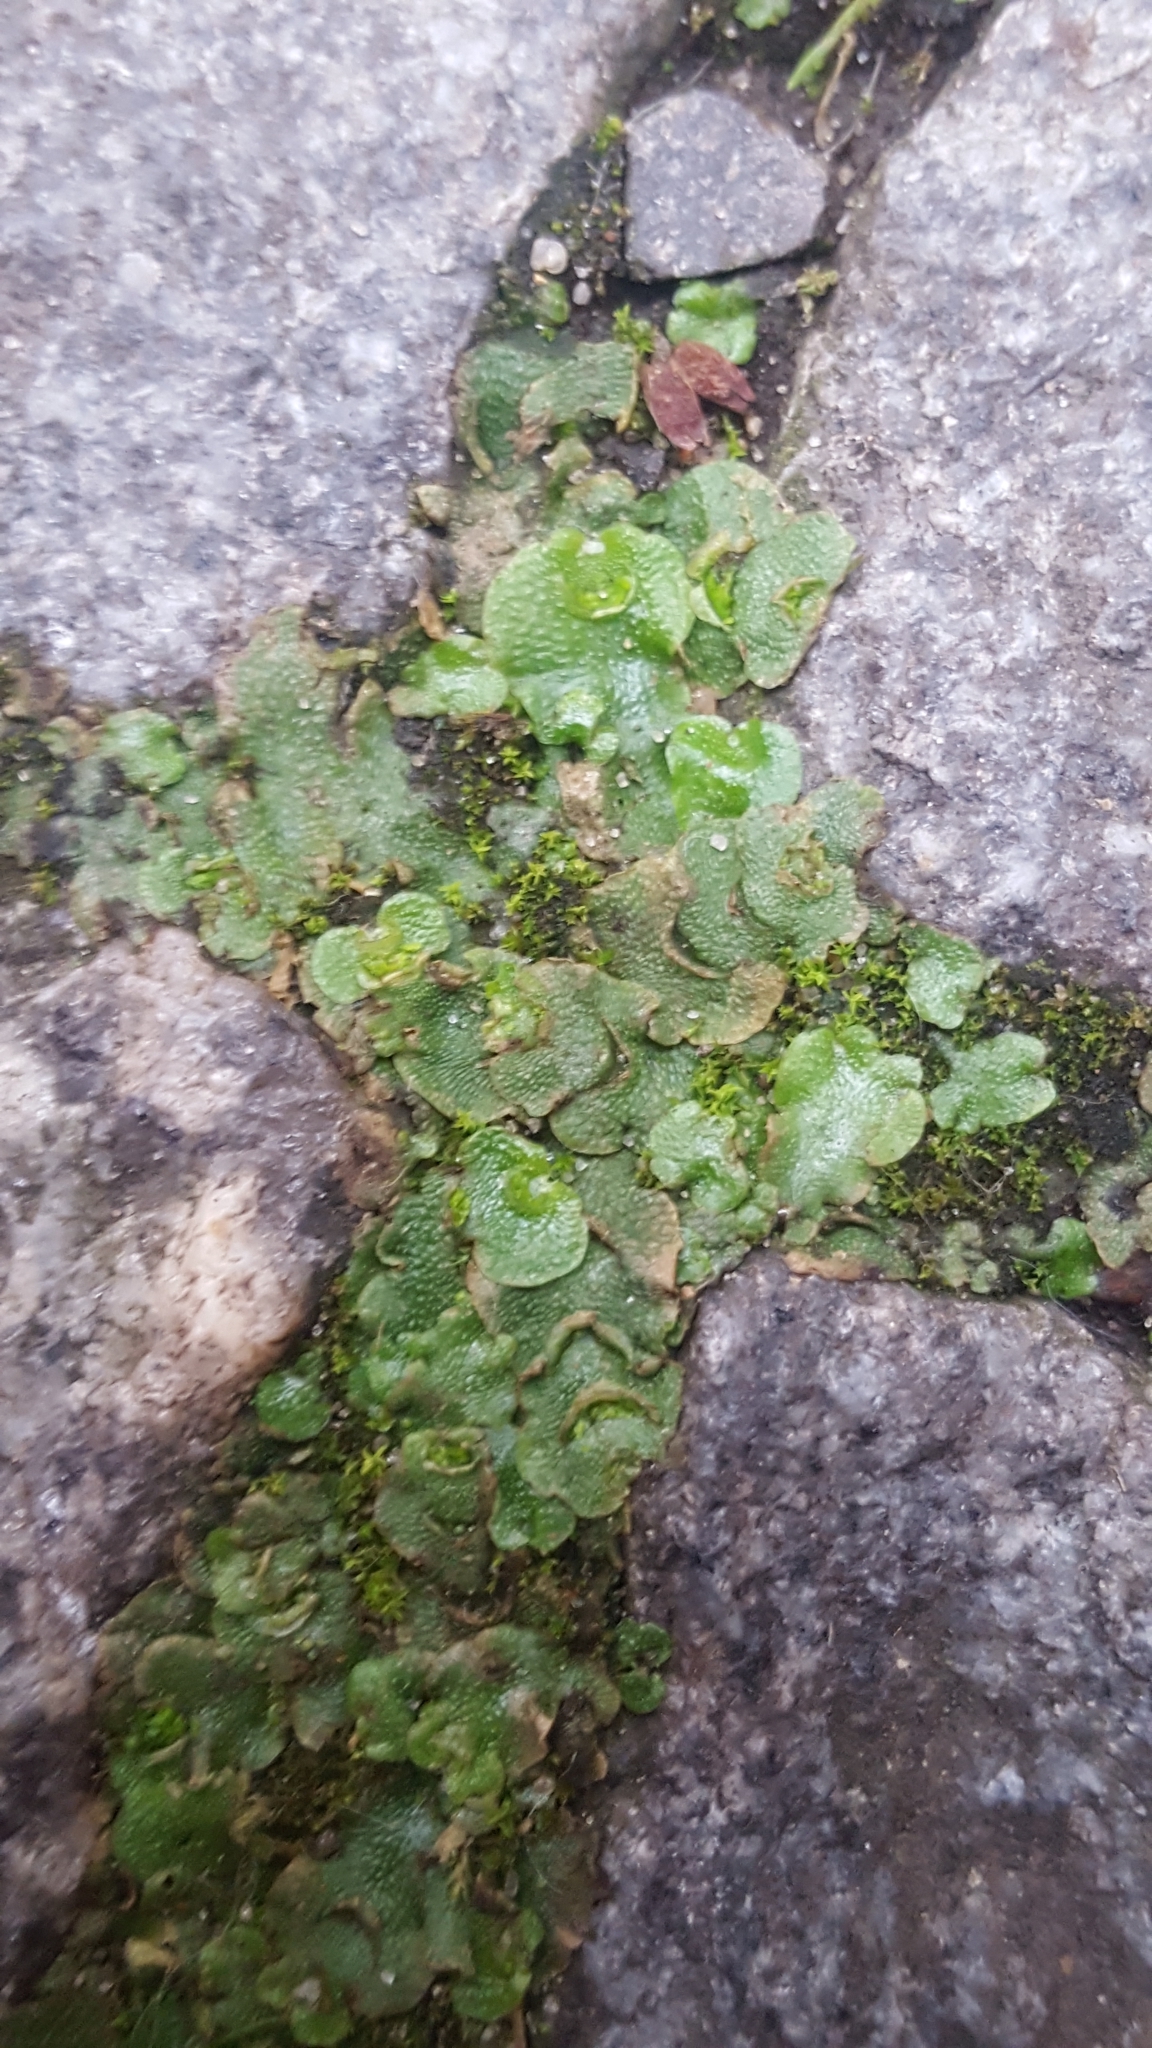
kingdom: Plantae
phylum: Marchantiophyta
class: Marchantiopsida
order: Lunulariales
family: Lunulariaceae
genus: Lunularia
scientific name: Lunularia cruciata
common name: Crescent-cup liverwort
